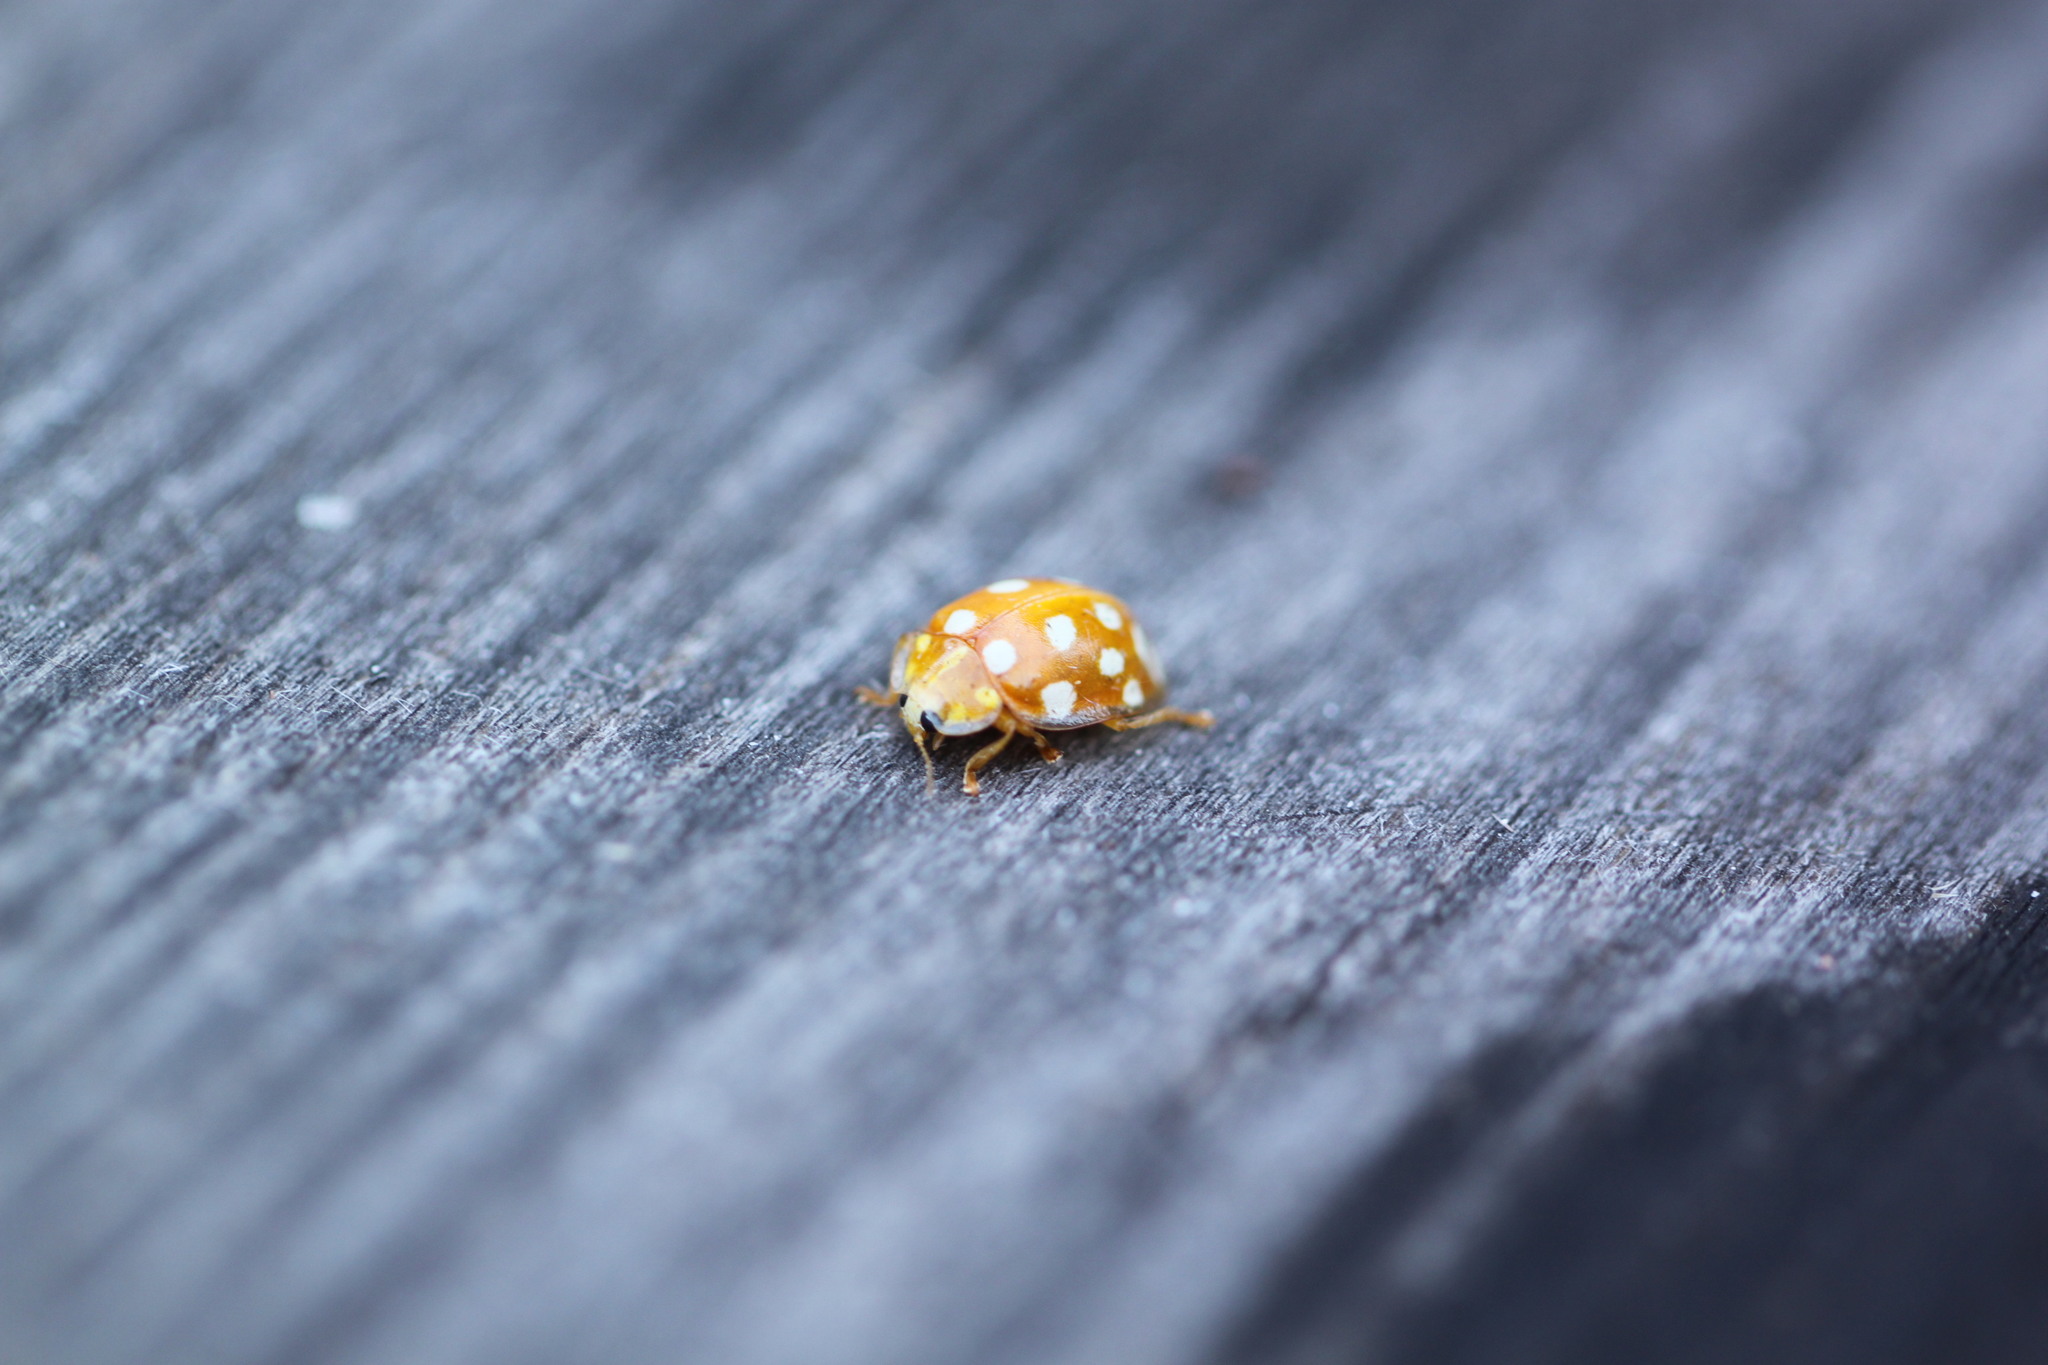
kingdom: Animalia
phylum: Arthropoda
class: Insecta
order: Coleoptera
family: Coccinellidae
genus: Halyzia
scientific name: Halyzia sedecimguttata
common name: Orange ladybird
